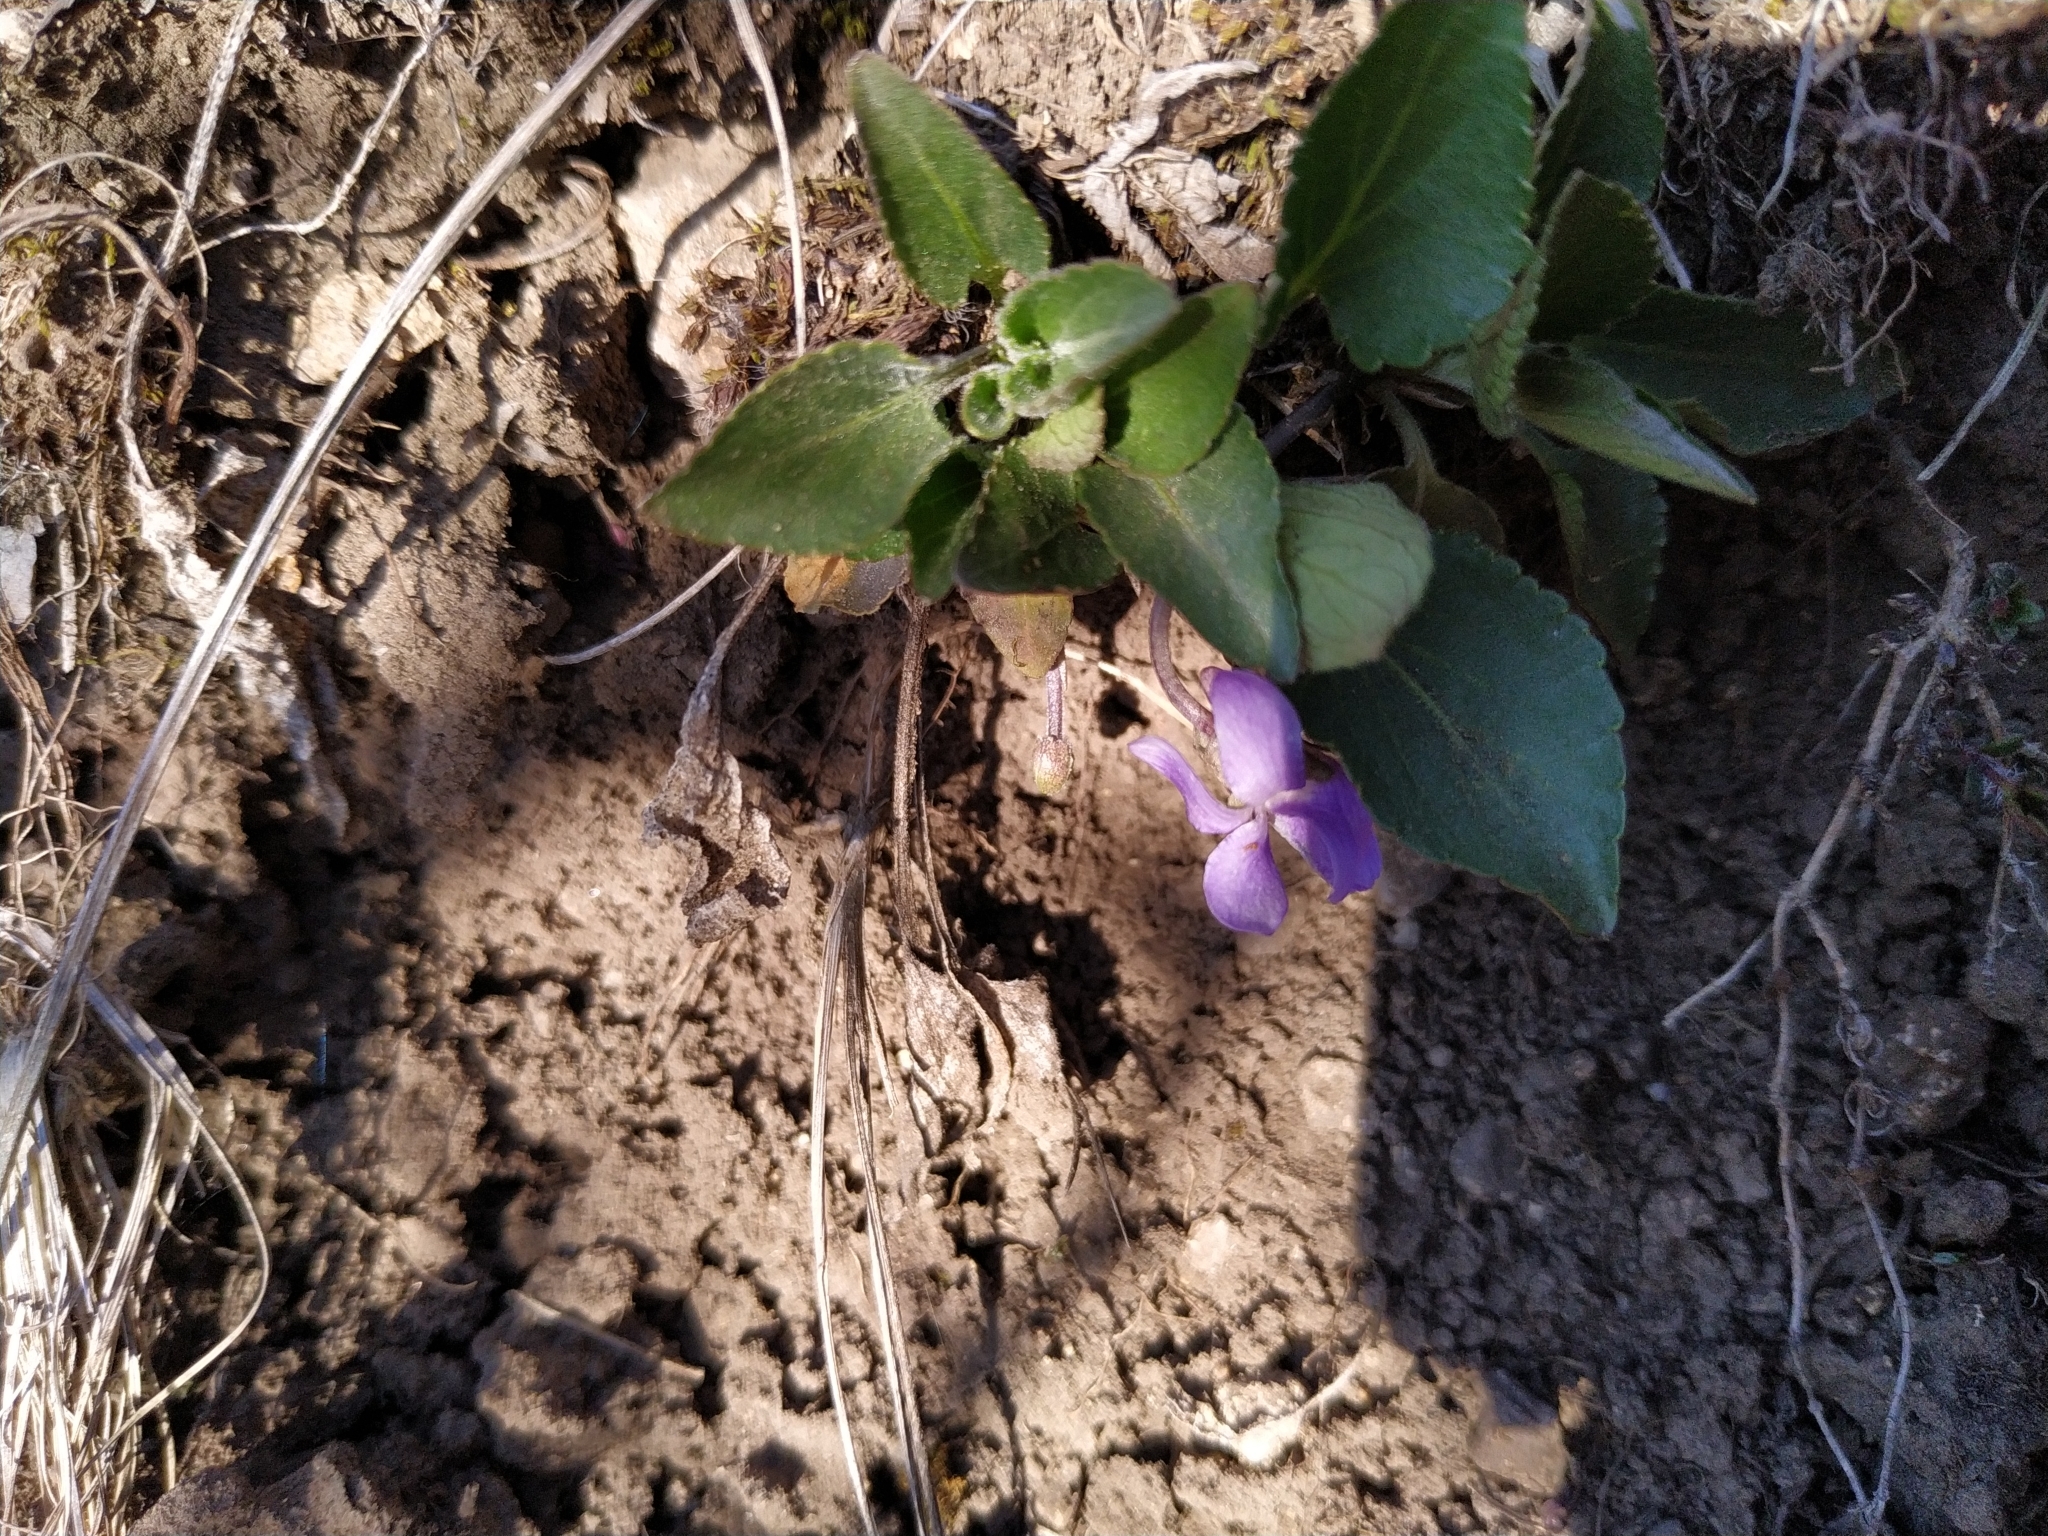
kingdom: Plantae
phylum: Tracheophyta
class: Magnoliopsida
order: Malpighiales
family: Violaceae
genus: Viola
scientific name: Viola ambigua
